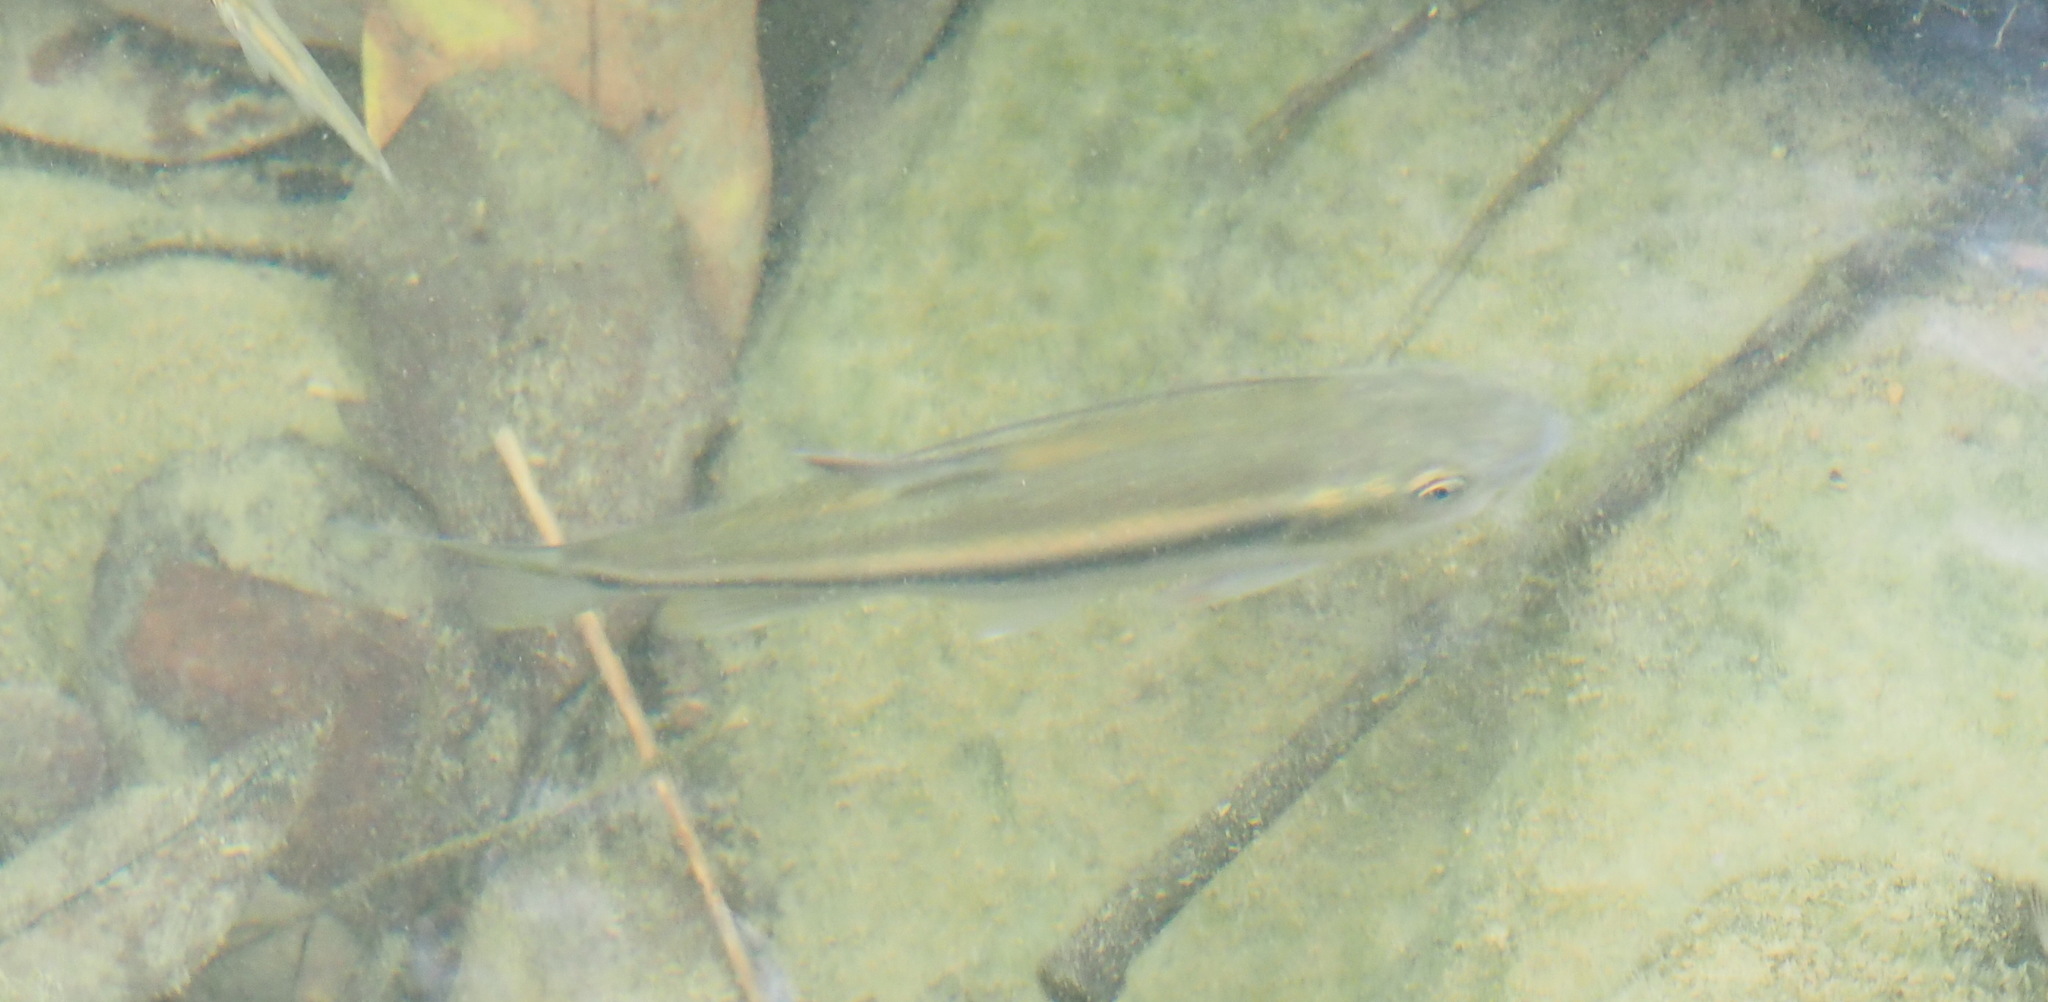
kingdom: Animalia
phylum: Chordata
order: Cypriniformes
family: Cyprinidae
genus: Candidia
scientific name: Candidia barbata
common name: Lake candidus dace
